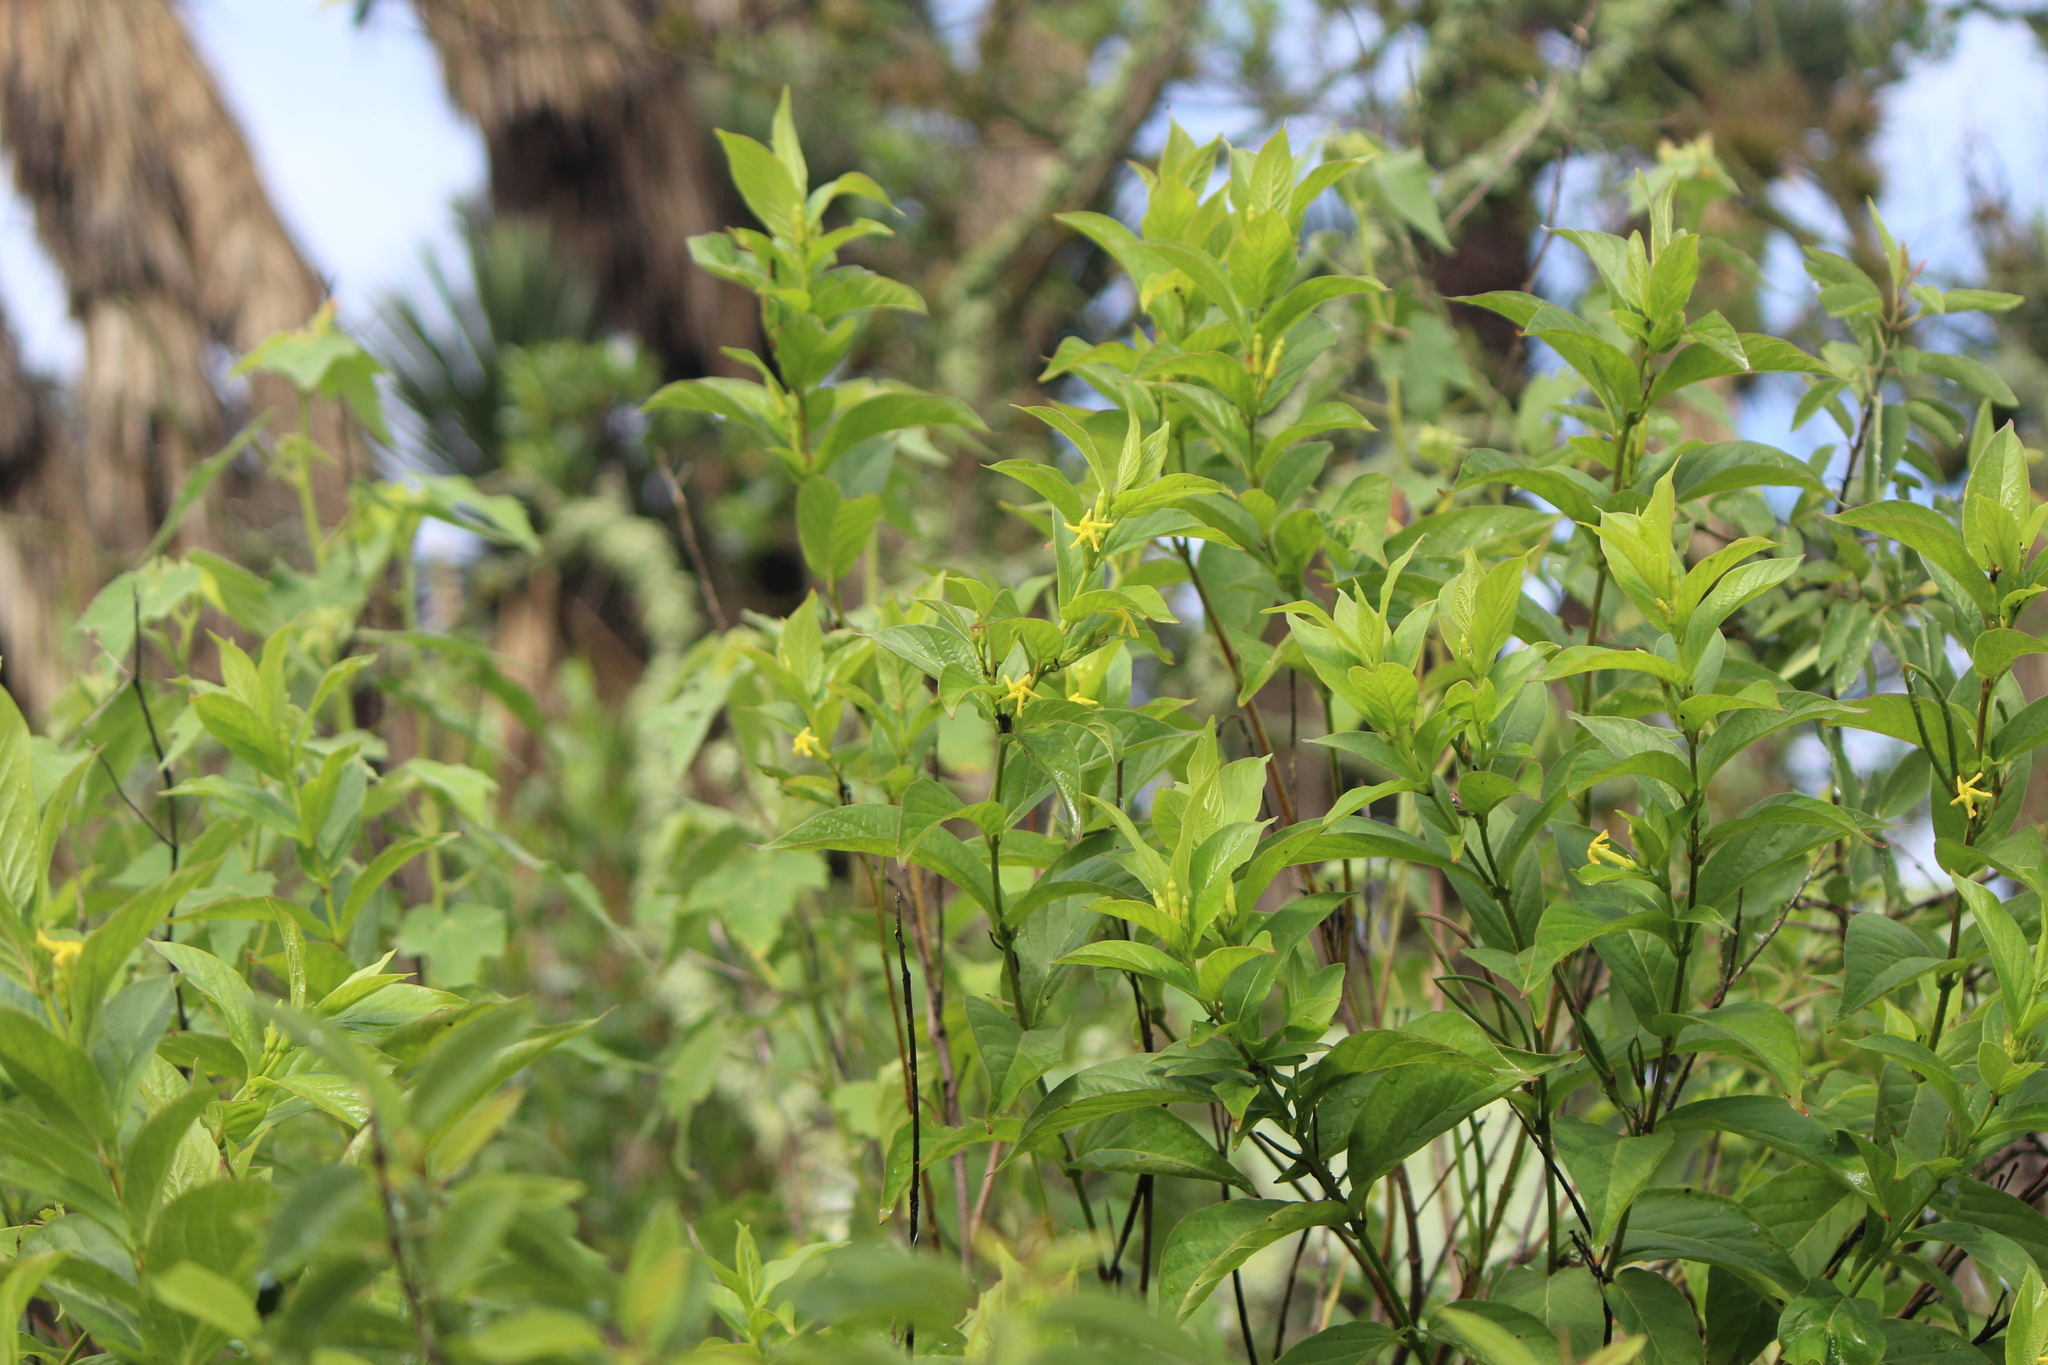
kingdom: Plantae
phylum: Tracheophyta
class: Magnoliopsida
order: Gentianales
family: Apocynaceae
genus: Mandevilla
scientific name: Mandevilla foliosa
